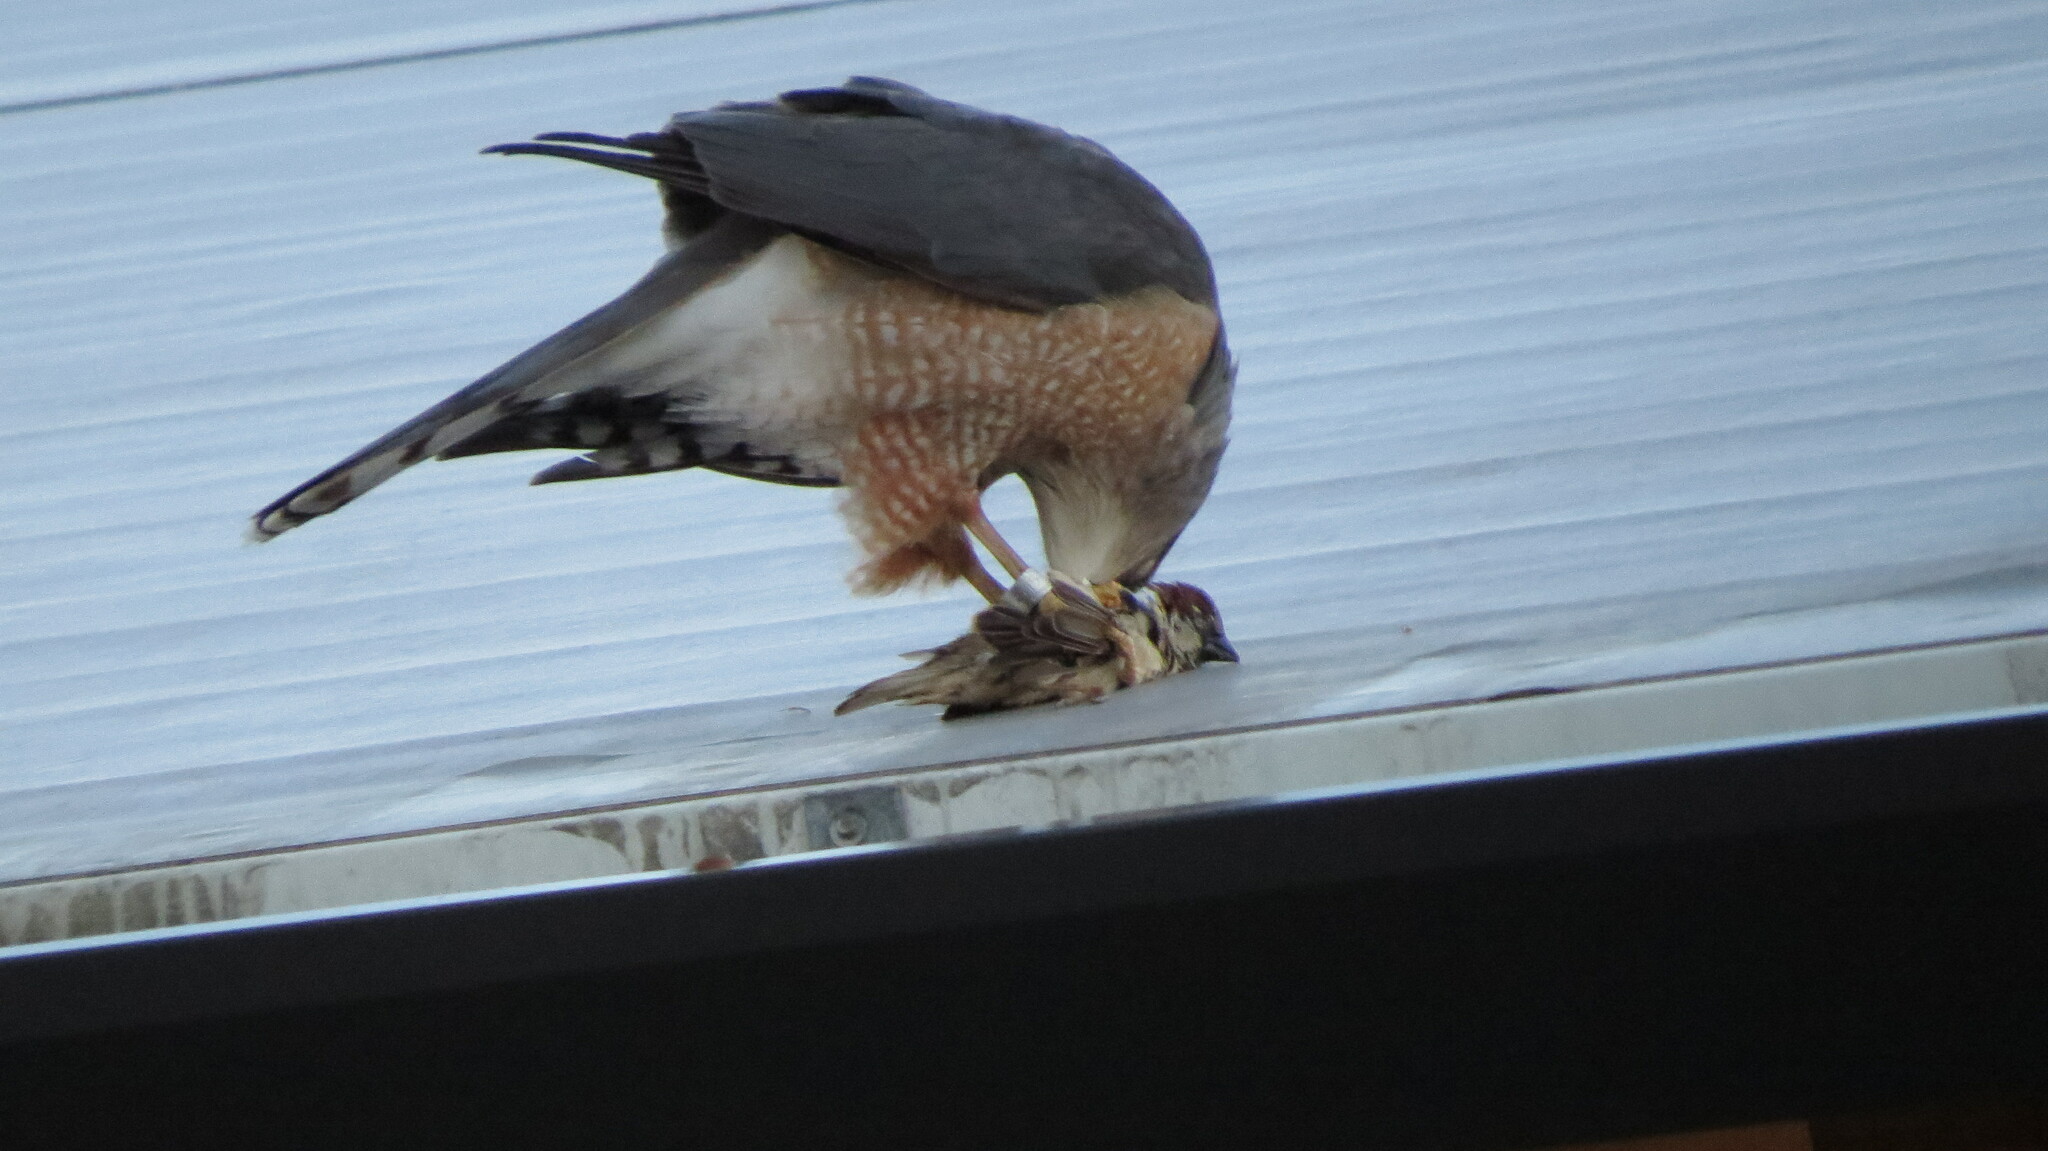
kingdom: Animalia
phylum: Chordata
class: Aves
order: Passeriformes
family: Passeridae
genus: Passer
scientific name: Passer domesticus
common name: House sparrow
